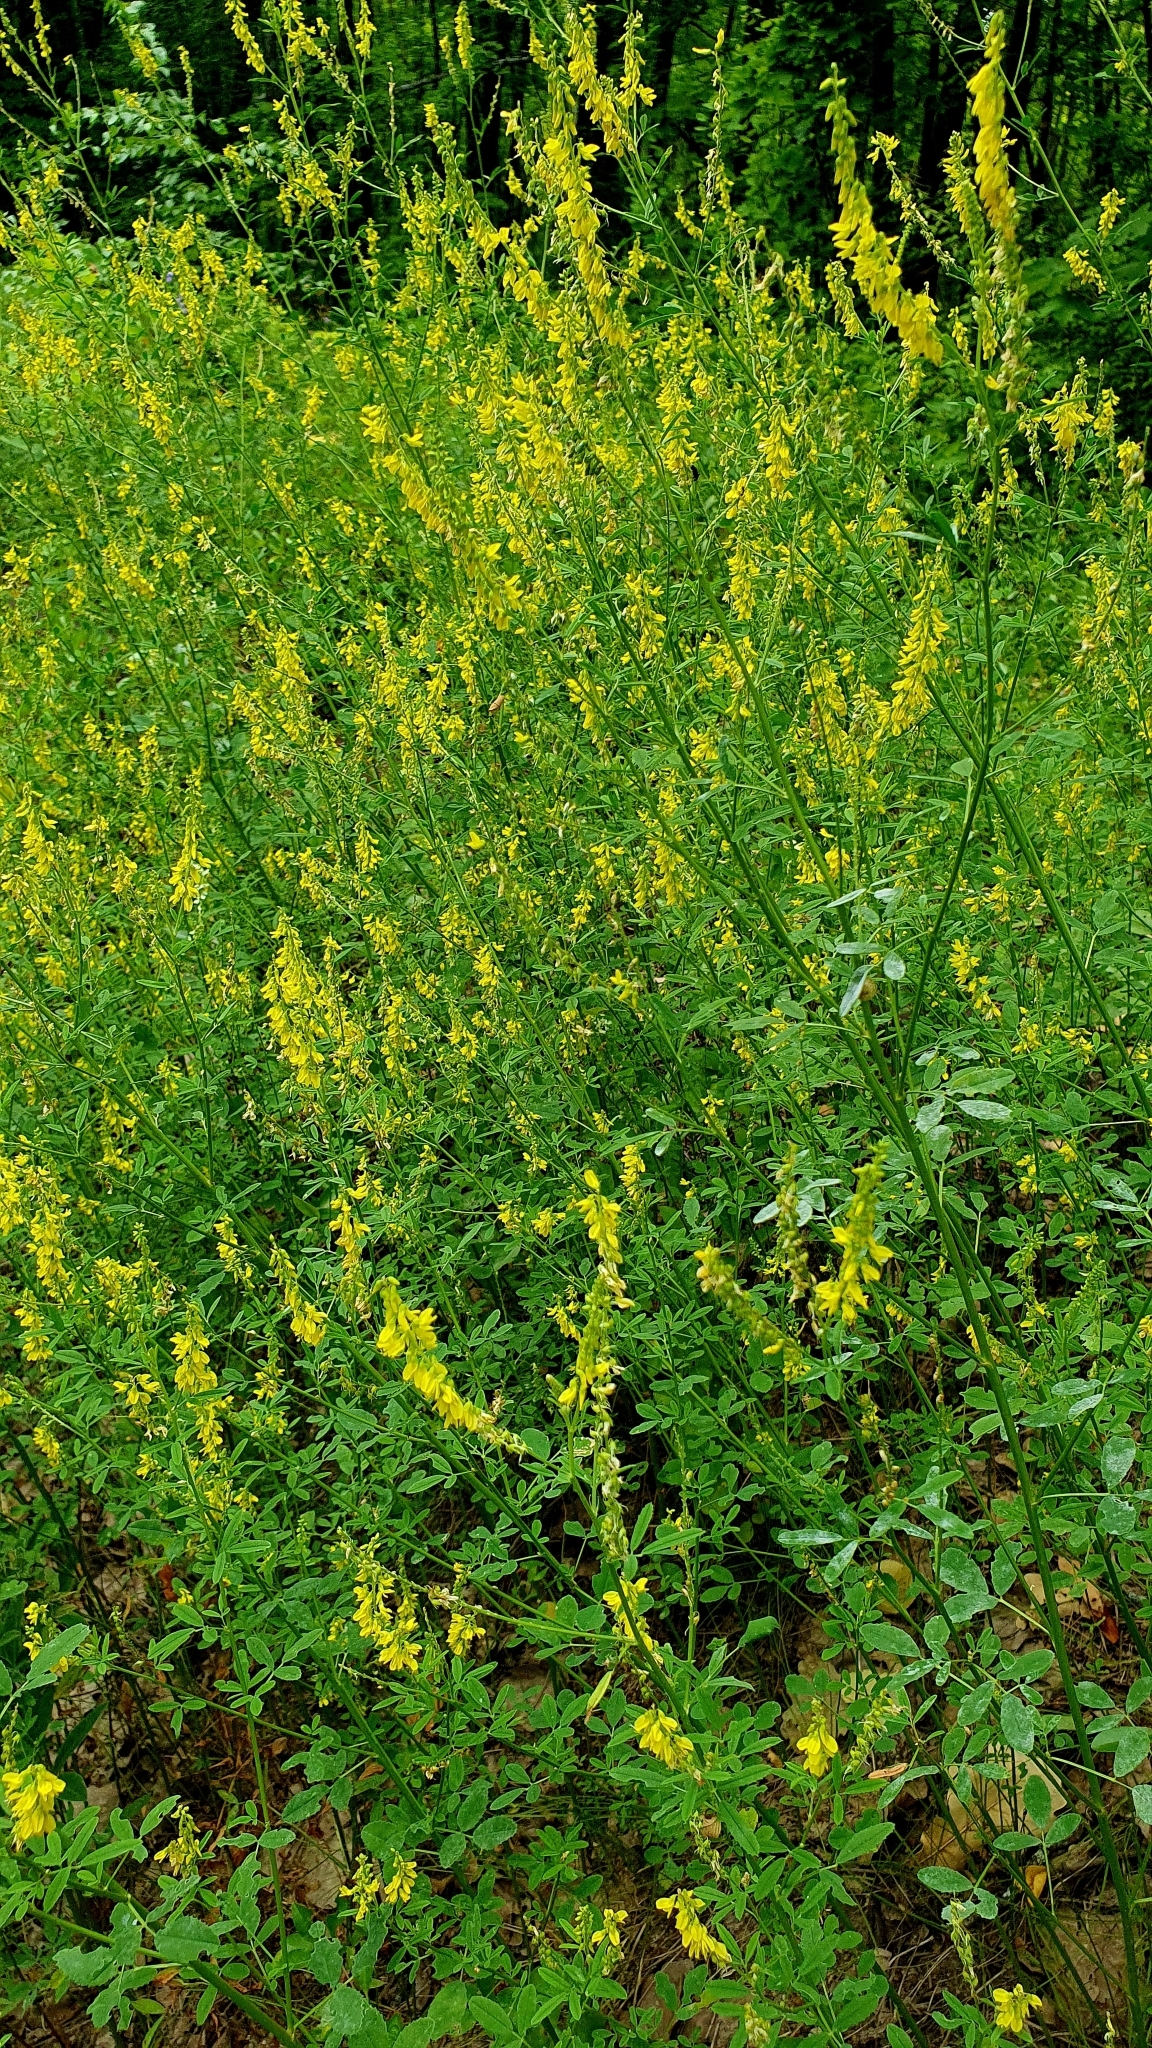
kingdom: Plantae
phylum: Tracheophyta
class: Magnoliopsida
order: Fabales
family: Fabaceae
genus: Melilotus
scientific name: Melilotus officinalis
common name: Sweetclover
